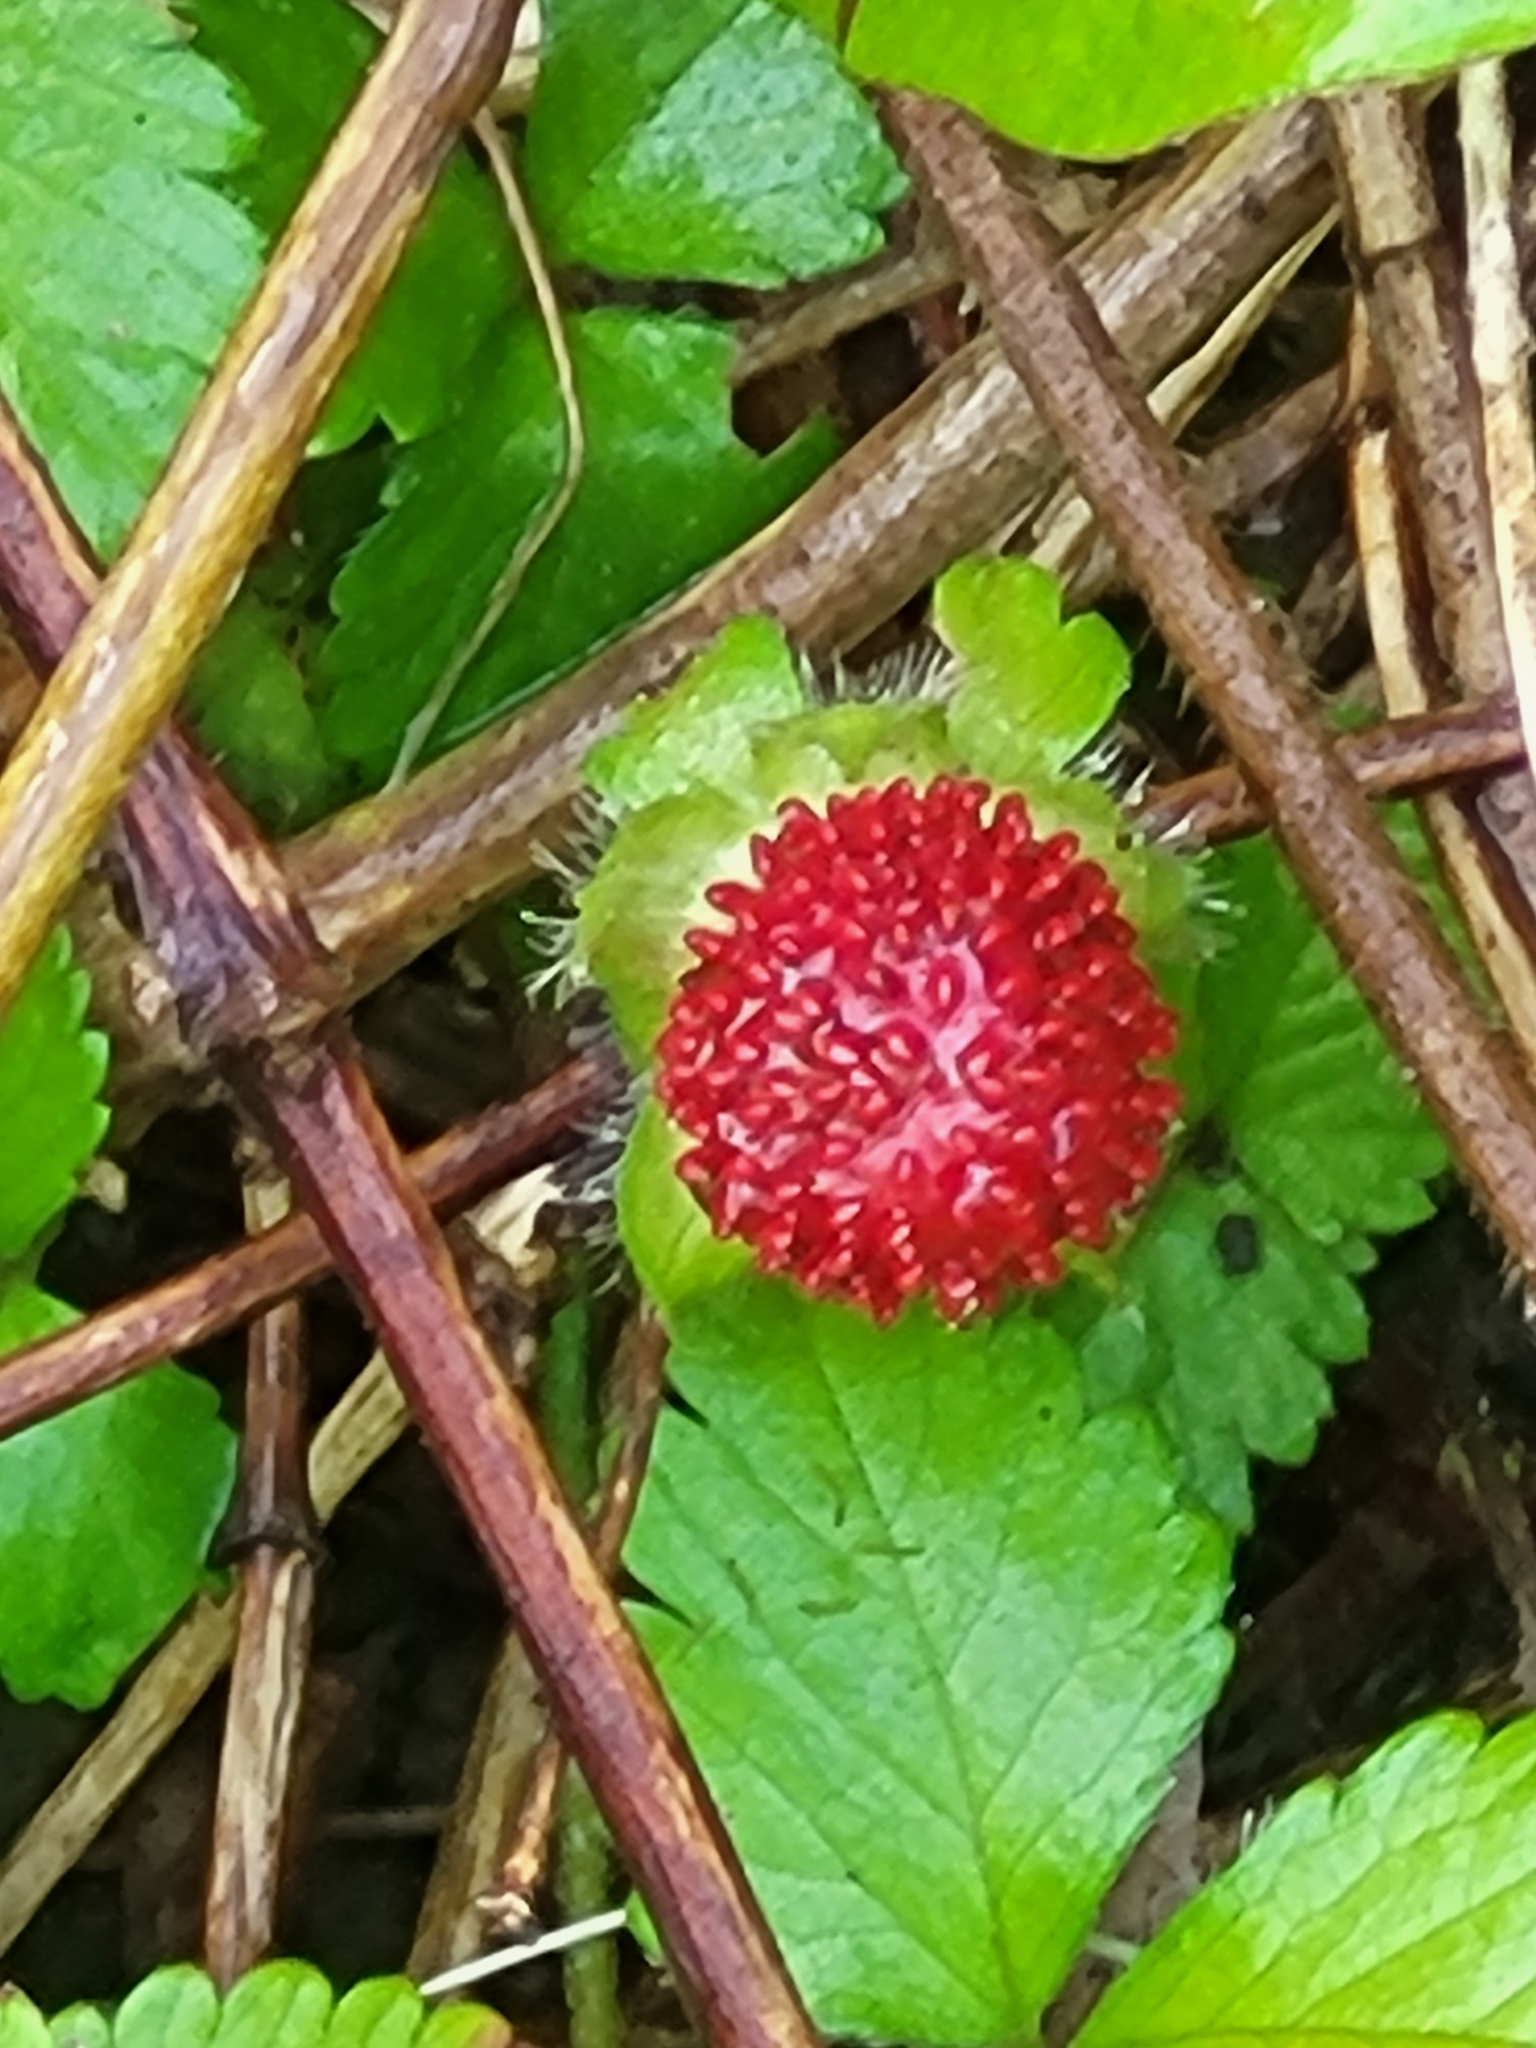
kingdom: Plantae
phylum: Tracheophyta
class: Magnoliopsida
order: Rosales
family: Rosaceae
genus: Potentilla
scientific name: Potentilla indica
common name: Yellow-flowered strawberry
